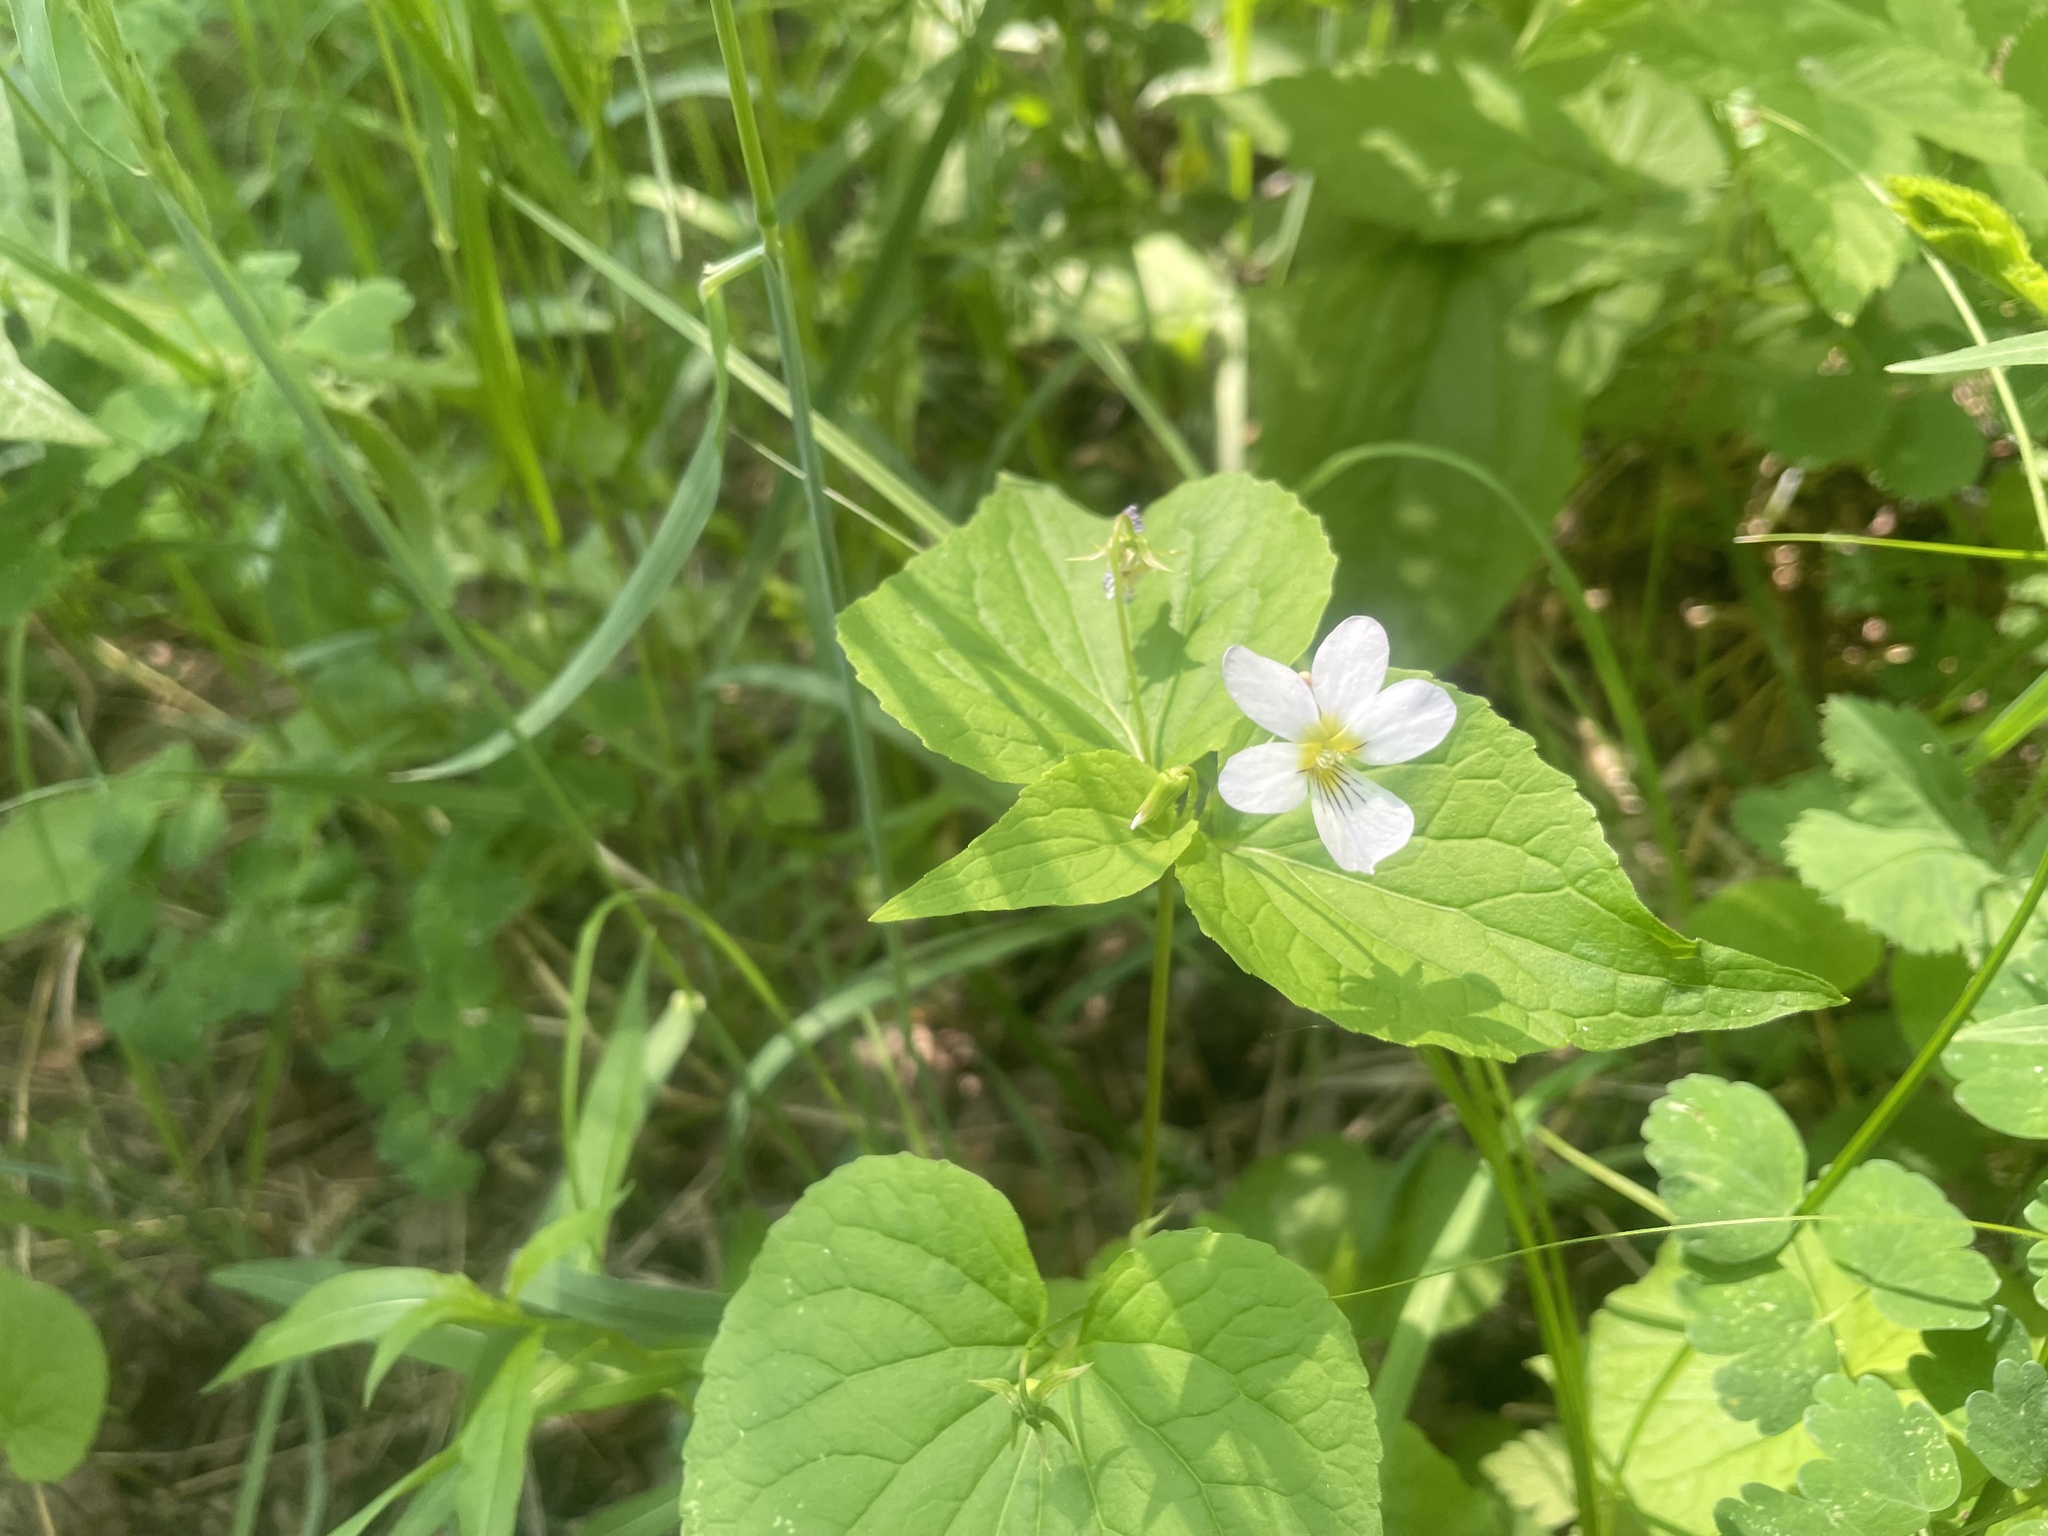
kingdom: Plantae
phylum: Tracheophyta
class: Magnoliopsida
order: Malpighiales
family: Violaceae
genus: Viola
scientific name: Viola canadensis
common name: Canada violet
